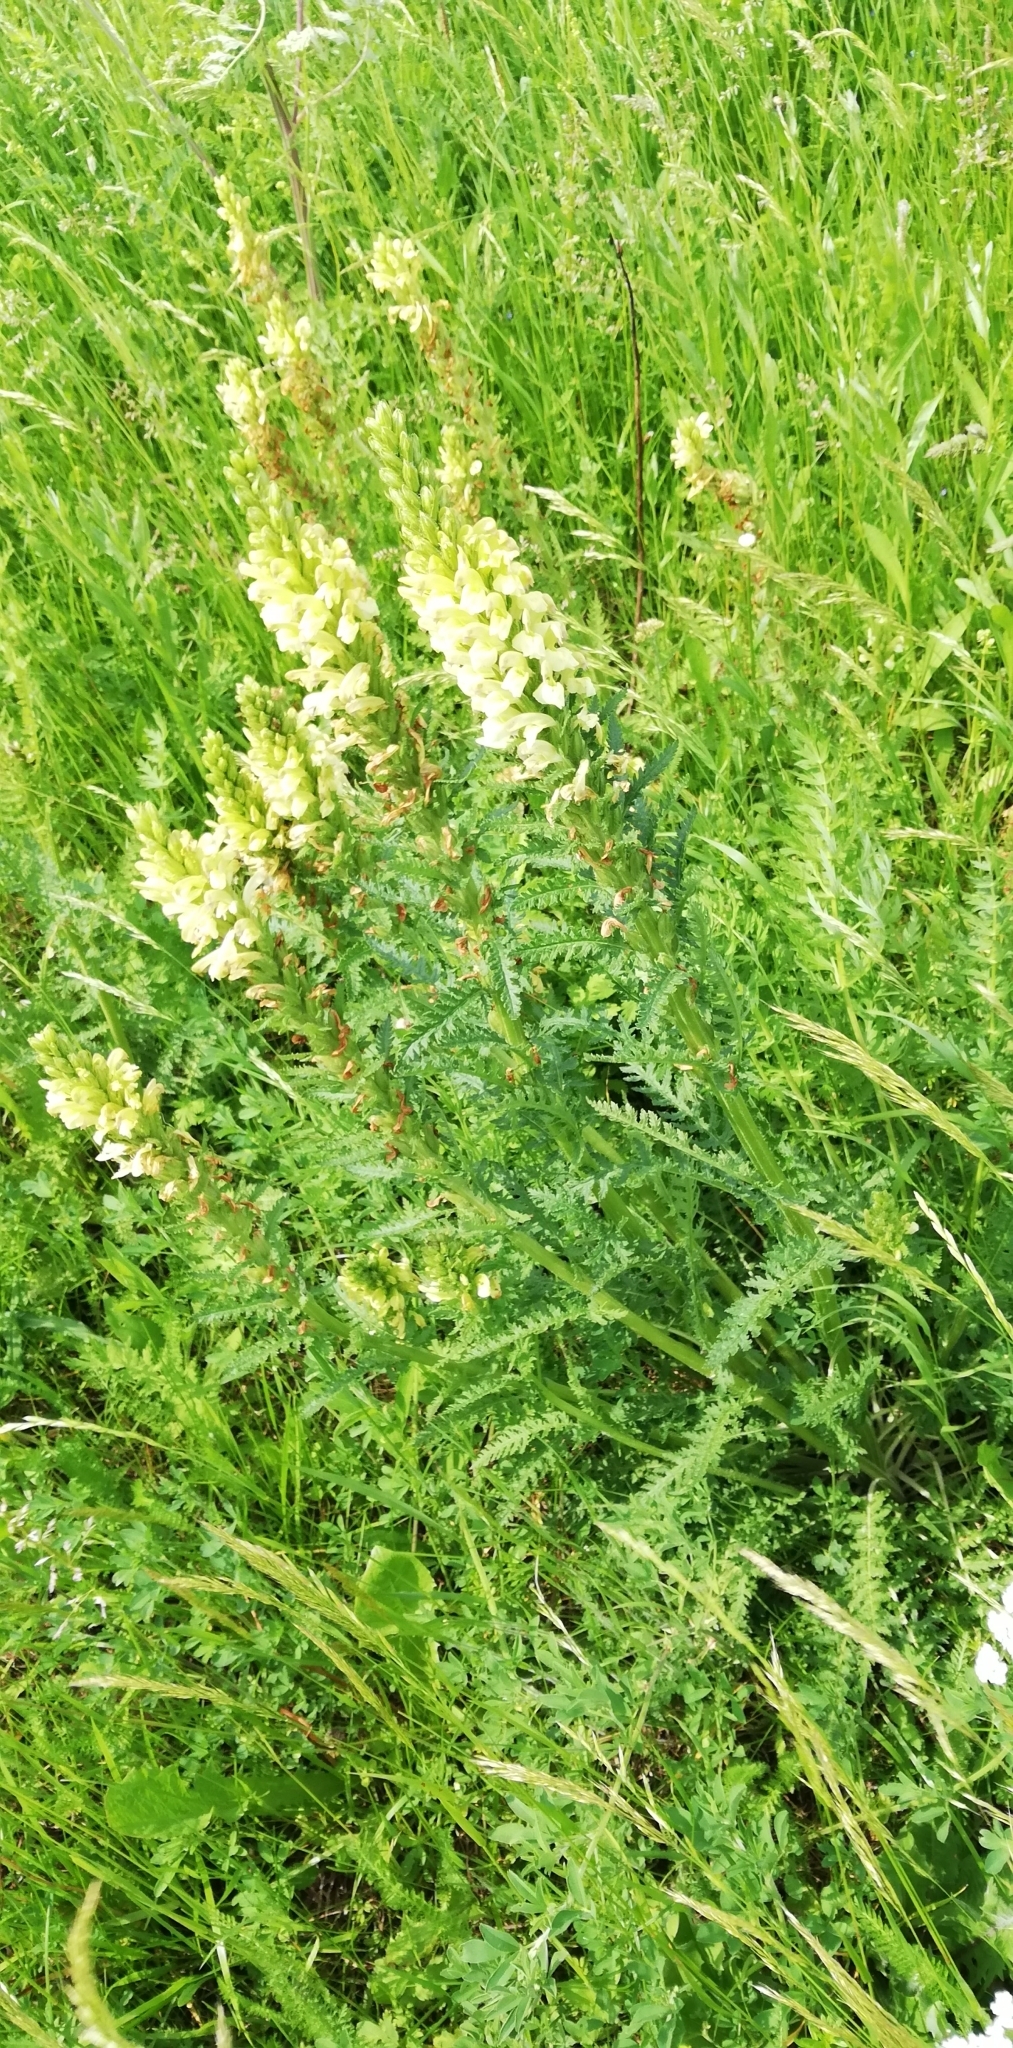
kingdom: Plantae
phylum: Tracheophyta
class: Magnoliopsida
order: Lamiales
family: Orobanchaceae
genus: Pedicularis
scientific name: Pedicularis kaufmannii
